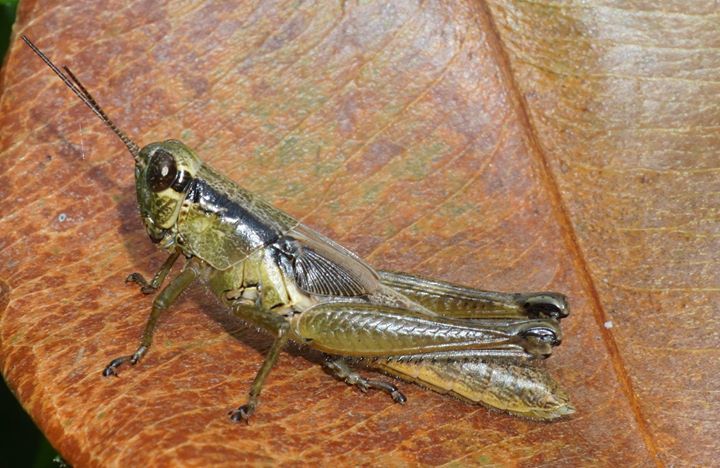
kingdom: Animalia
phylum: Arthropoda
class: Insecta
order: Orthoptera
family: Acrididae
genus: Paroxya
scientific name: Paroxya clavuligera
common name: Olive-green swamp grasshopper
